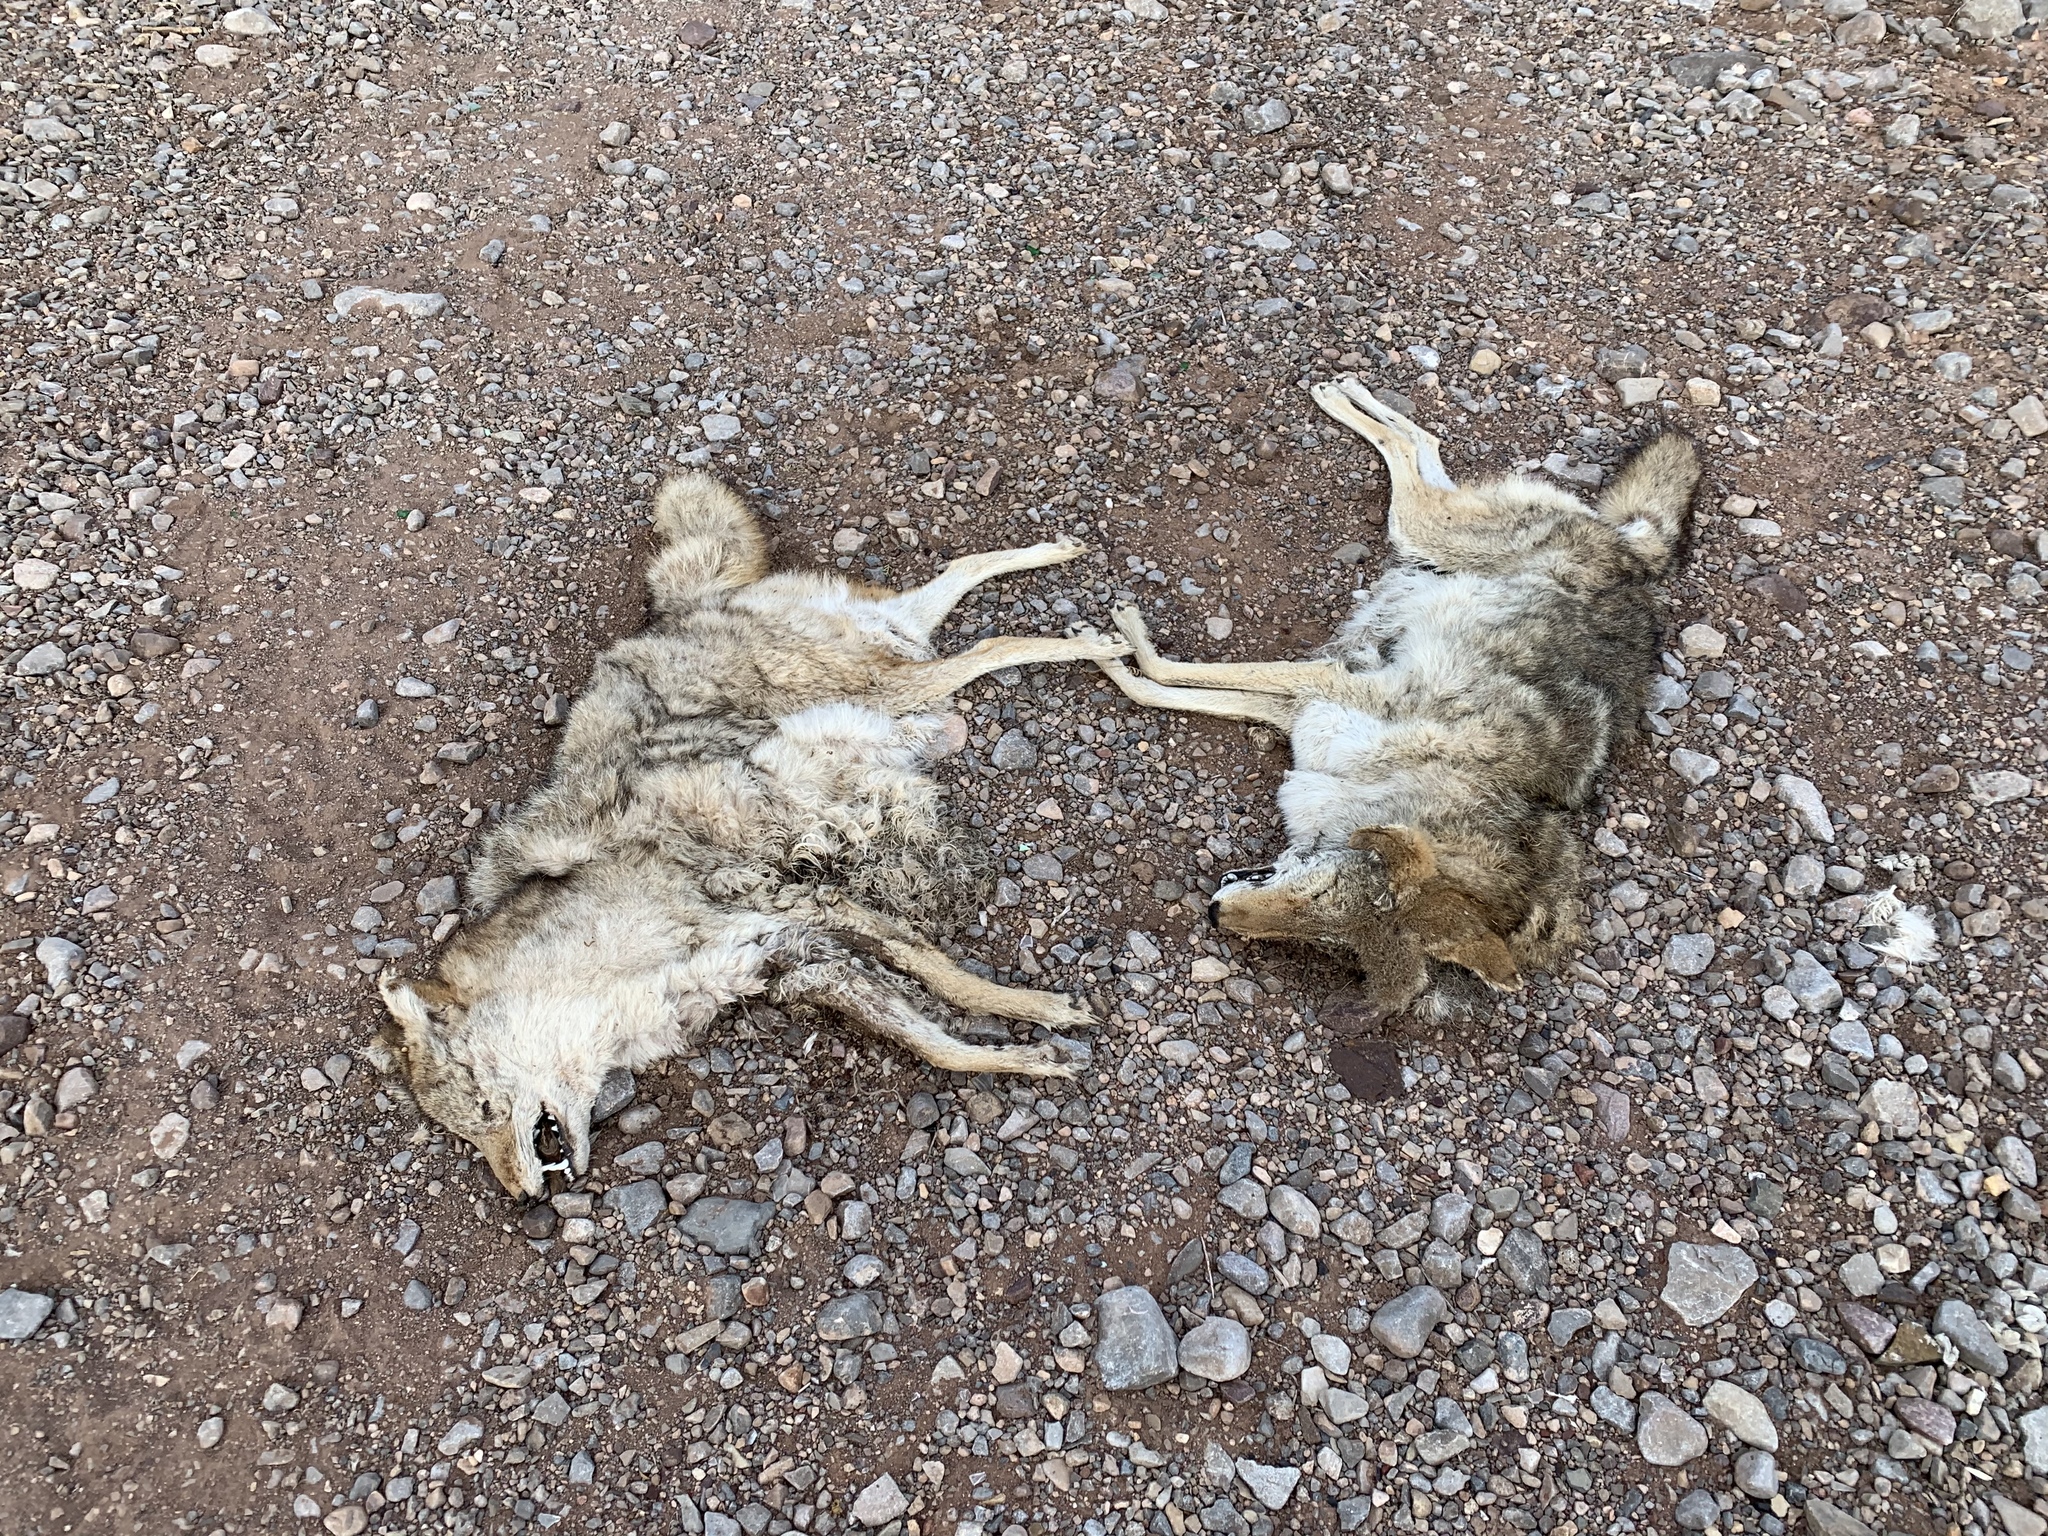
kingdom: Animalia
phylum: Chordata
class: Mammalia
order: Carnivora
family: Canidae
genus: Canis
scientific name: Canis latrans
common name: Coyote
